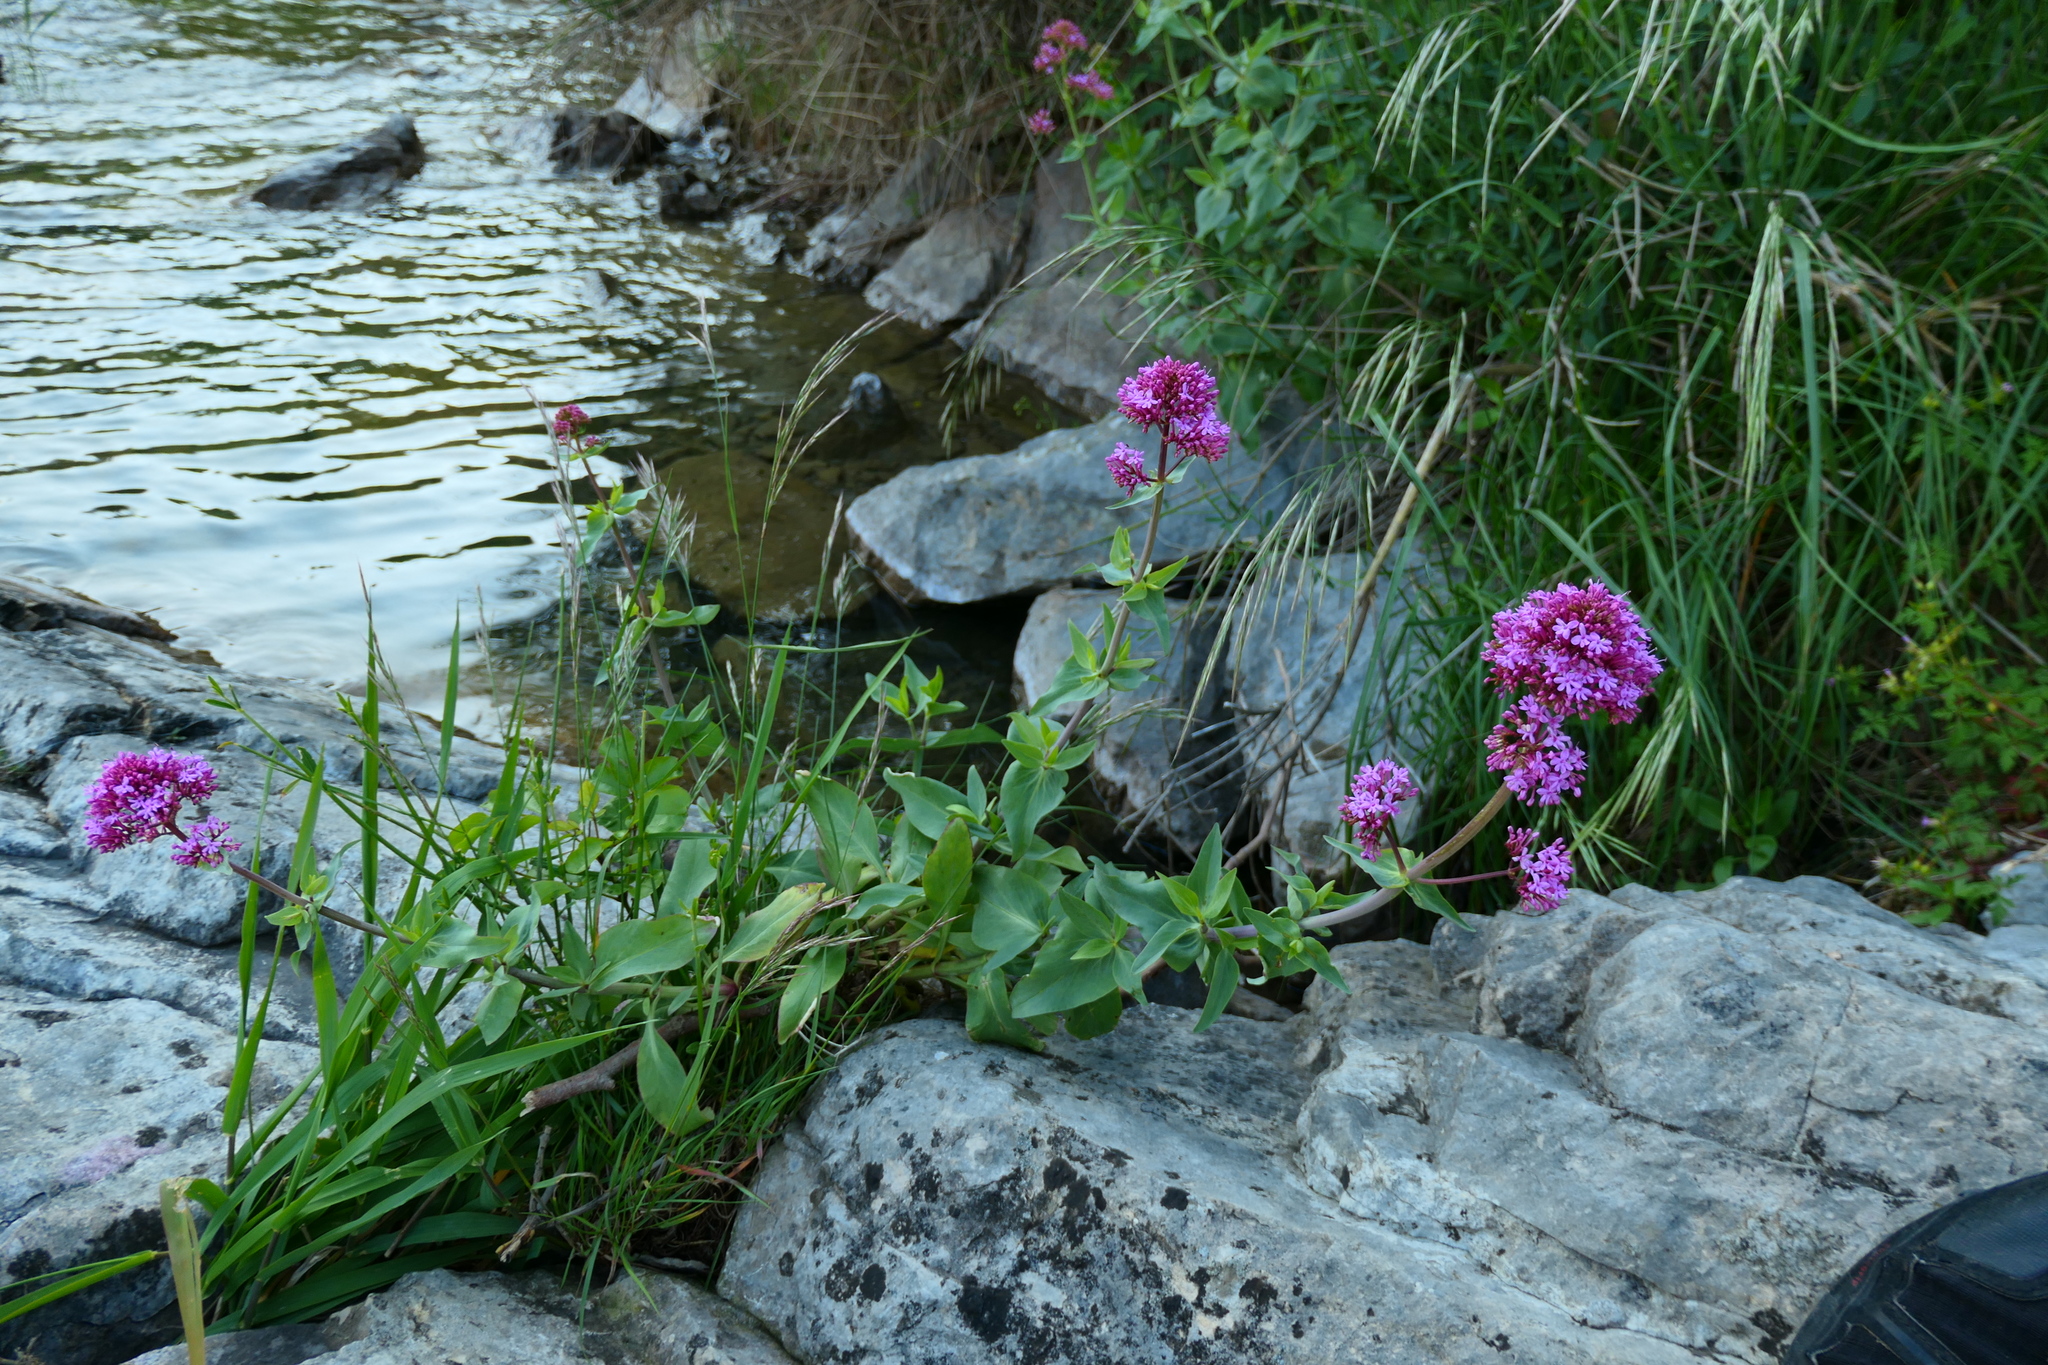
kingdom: Plantae
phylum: Tracheophyta
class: Magnoliopsida
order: Dipsacales
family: Caprifoliaceae
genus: Centranthus
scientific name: Centranthus ruber
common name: Red valerian
